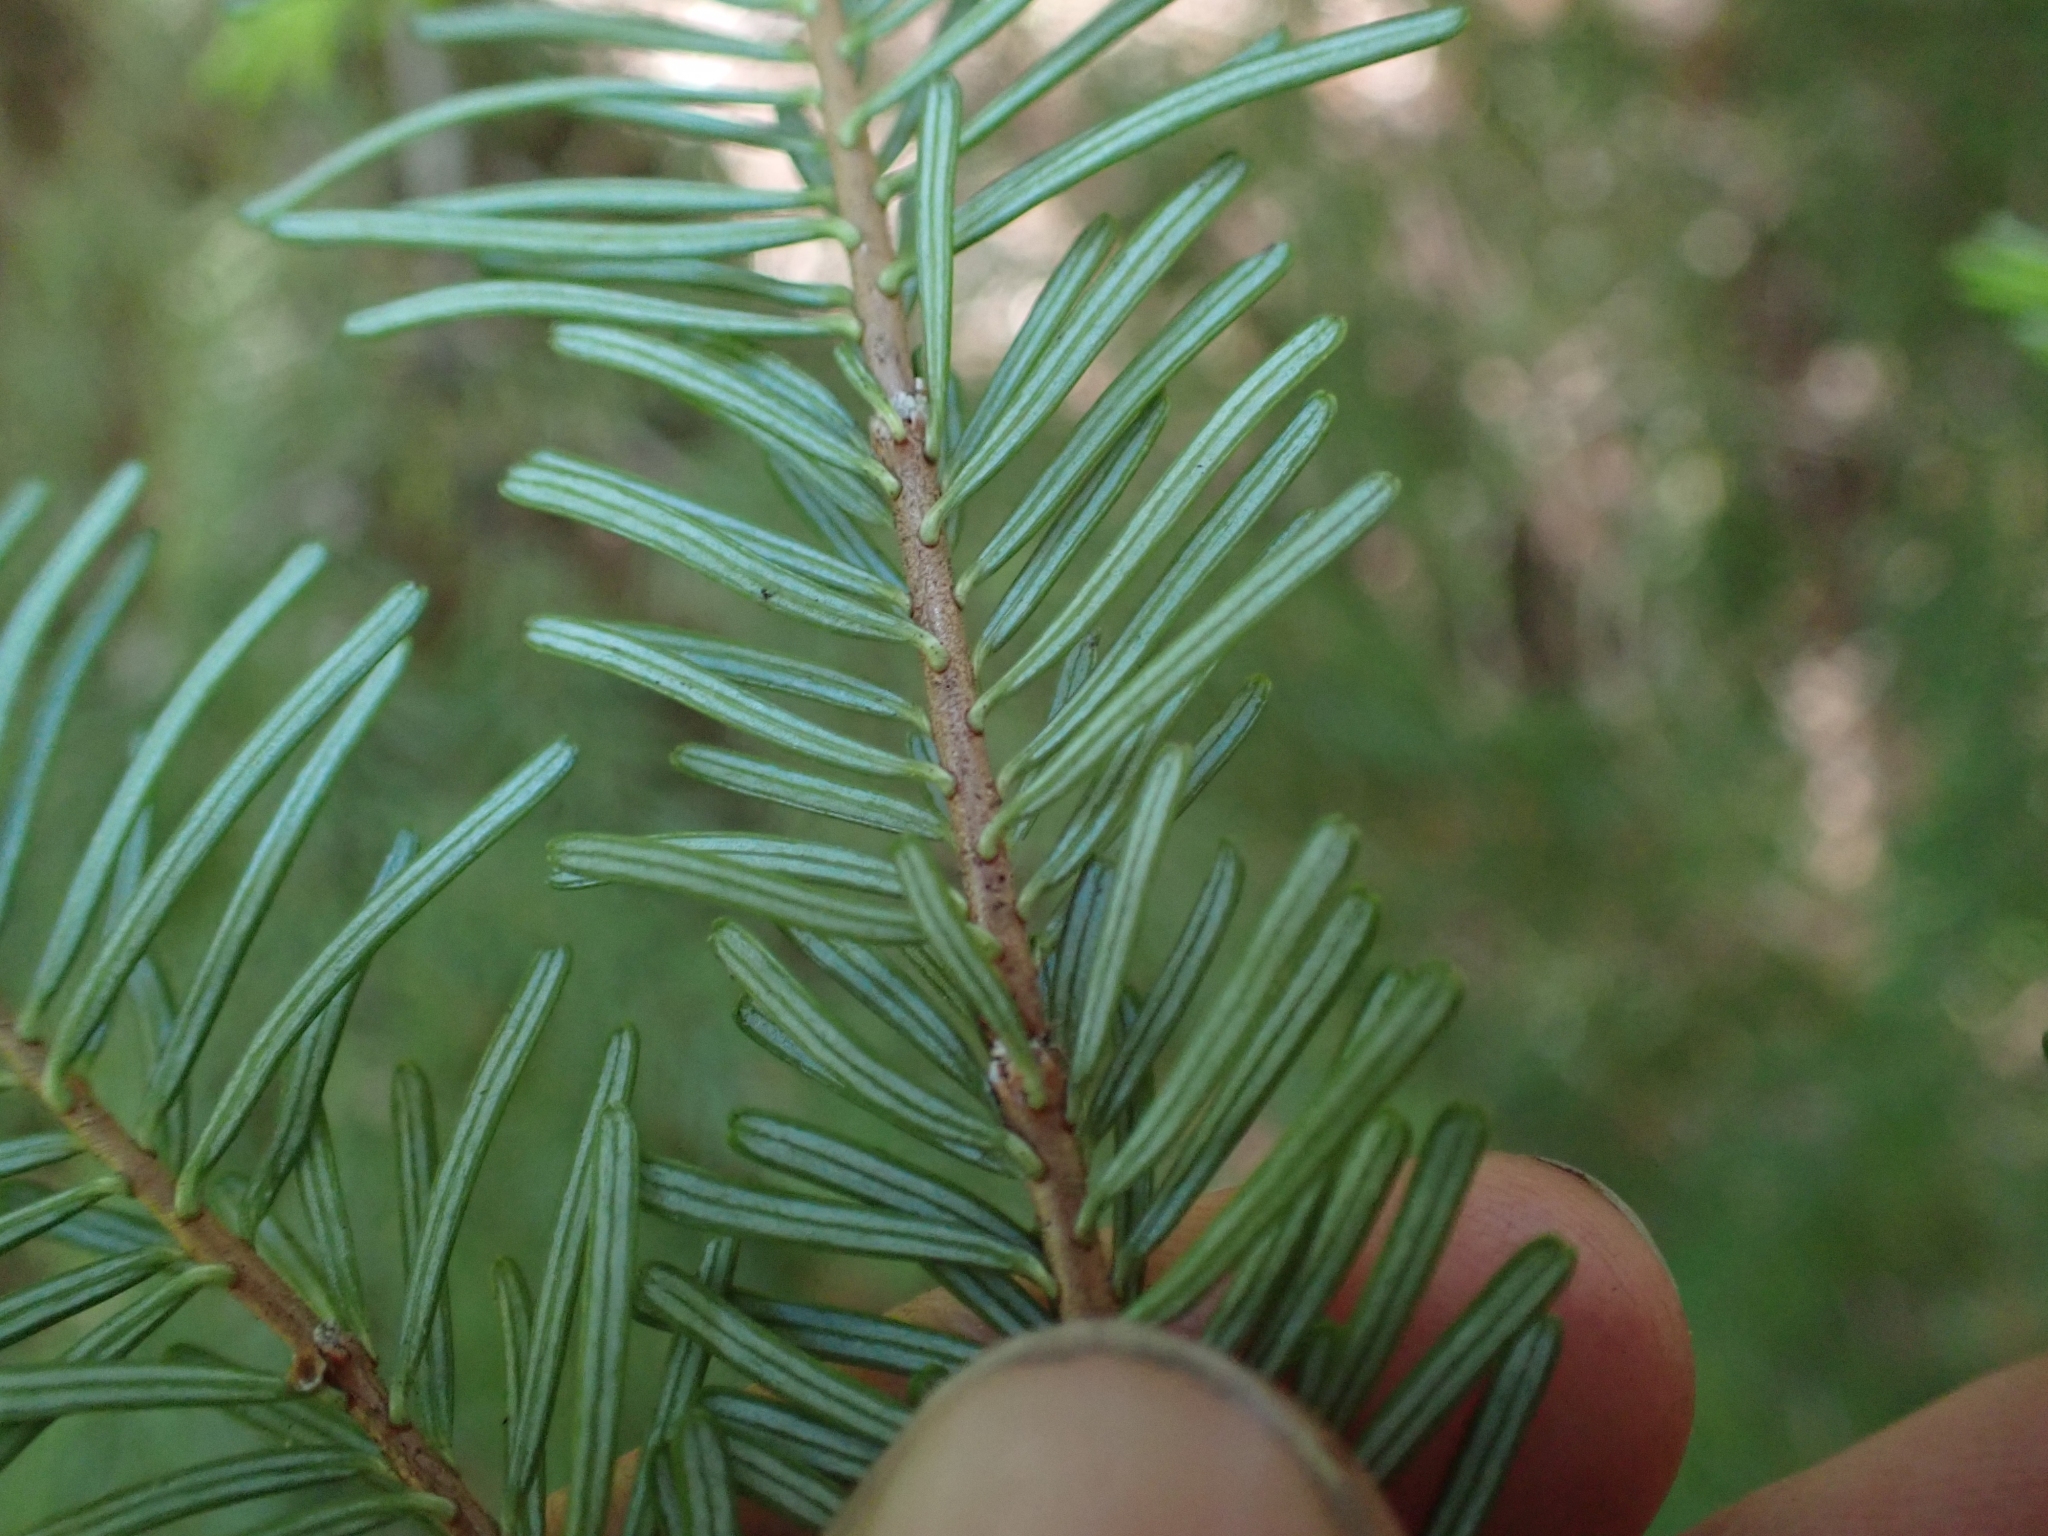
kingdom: Plantae
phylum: Tracheophyta
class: Pinopsida
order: Pinales
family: Pinaceae
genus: Abies
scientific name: Abies amabilis
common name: Pacific silver fir
